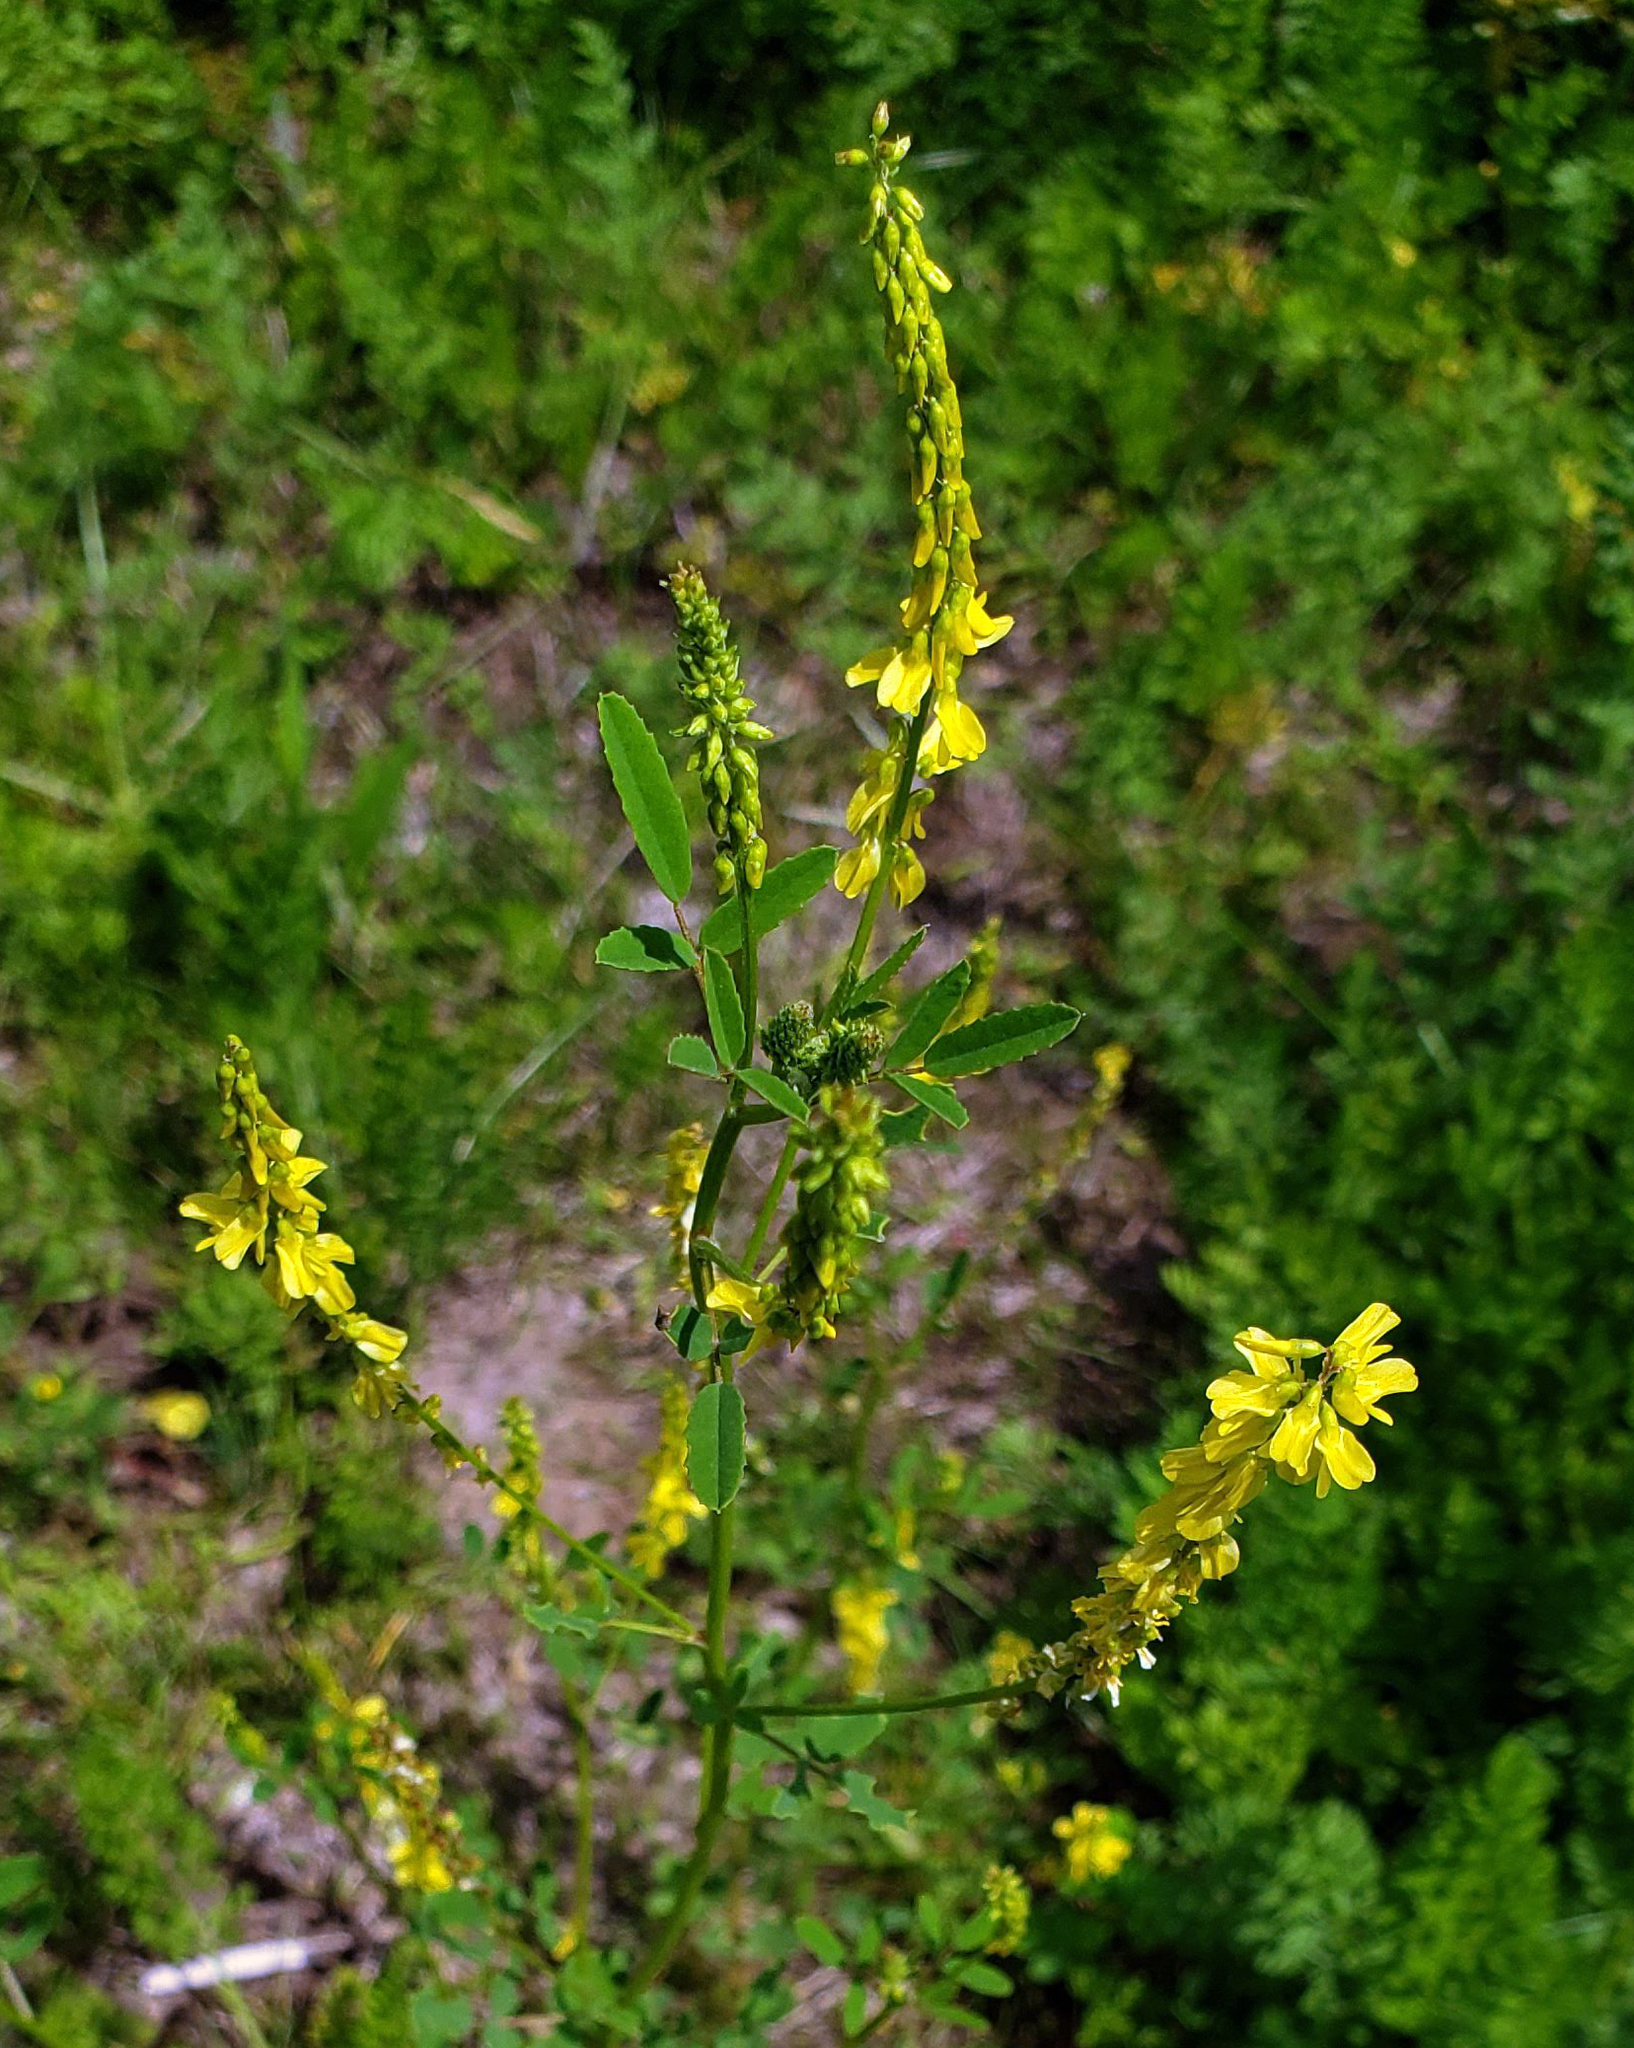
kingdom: Plantae
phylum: Tracheophyta
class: Magnoliopsida
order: Fabales
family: Fabaceae
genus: Melilotus
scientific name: Melilotus officinalis
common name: Sweetclover
